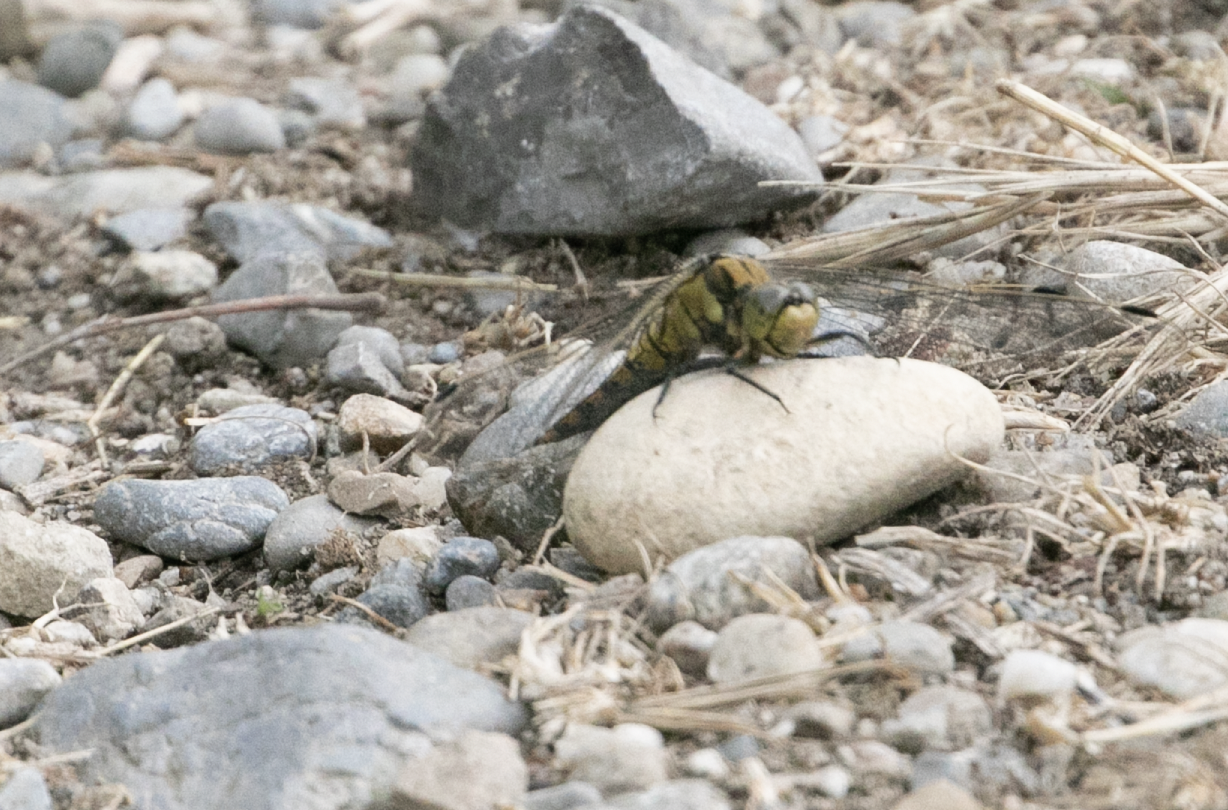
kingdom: Animalia
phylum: Arthropoda
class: Insecta
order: Odonata
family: Libellulidae
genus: Orthetrum
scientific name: Orthetrum cancellatum
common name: Black-tailed skimmer
